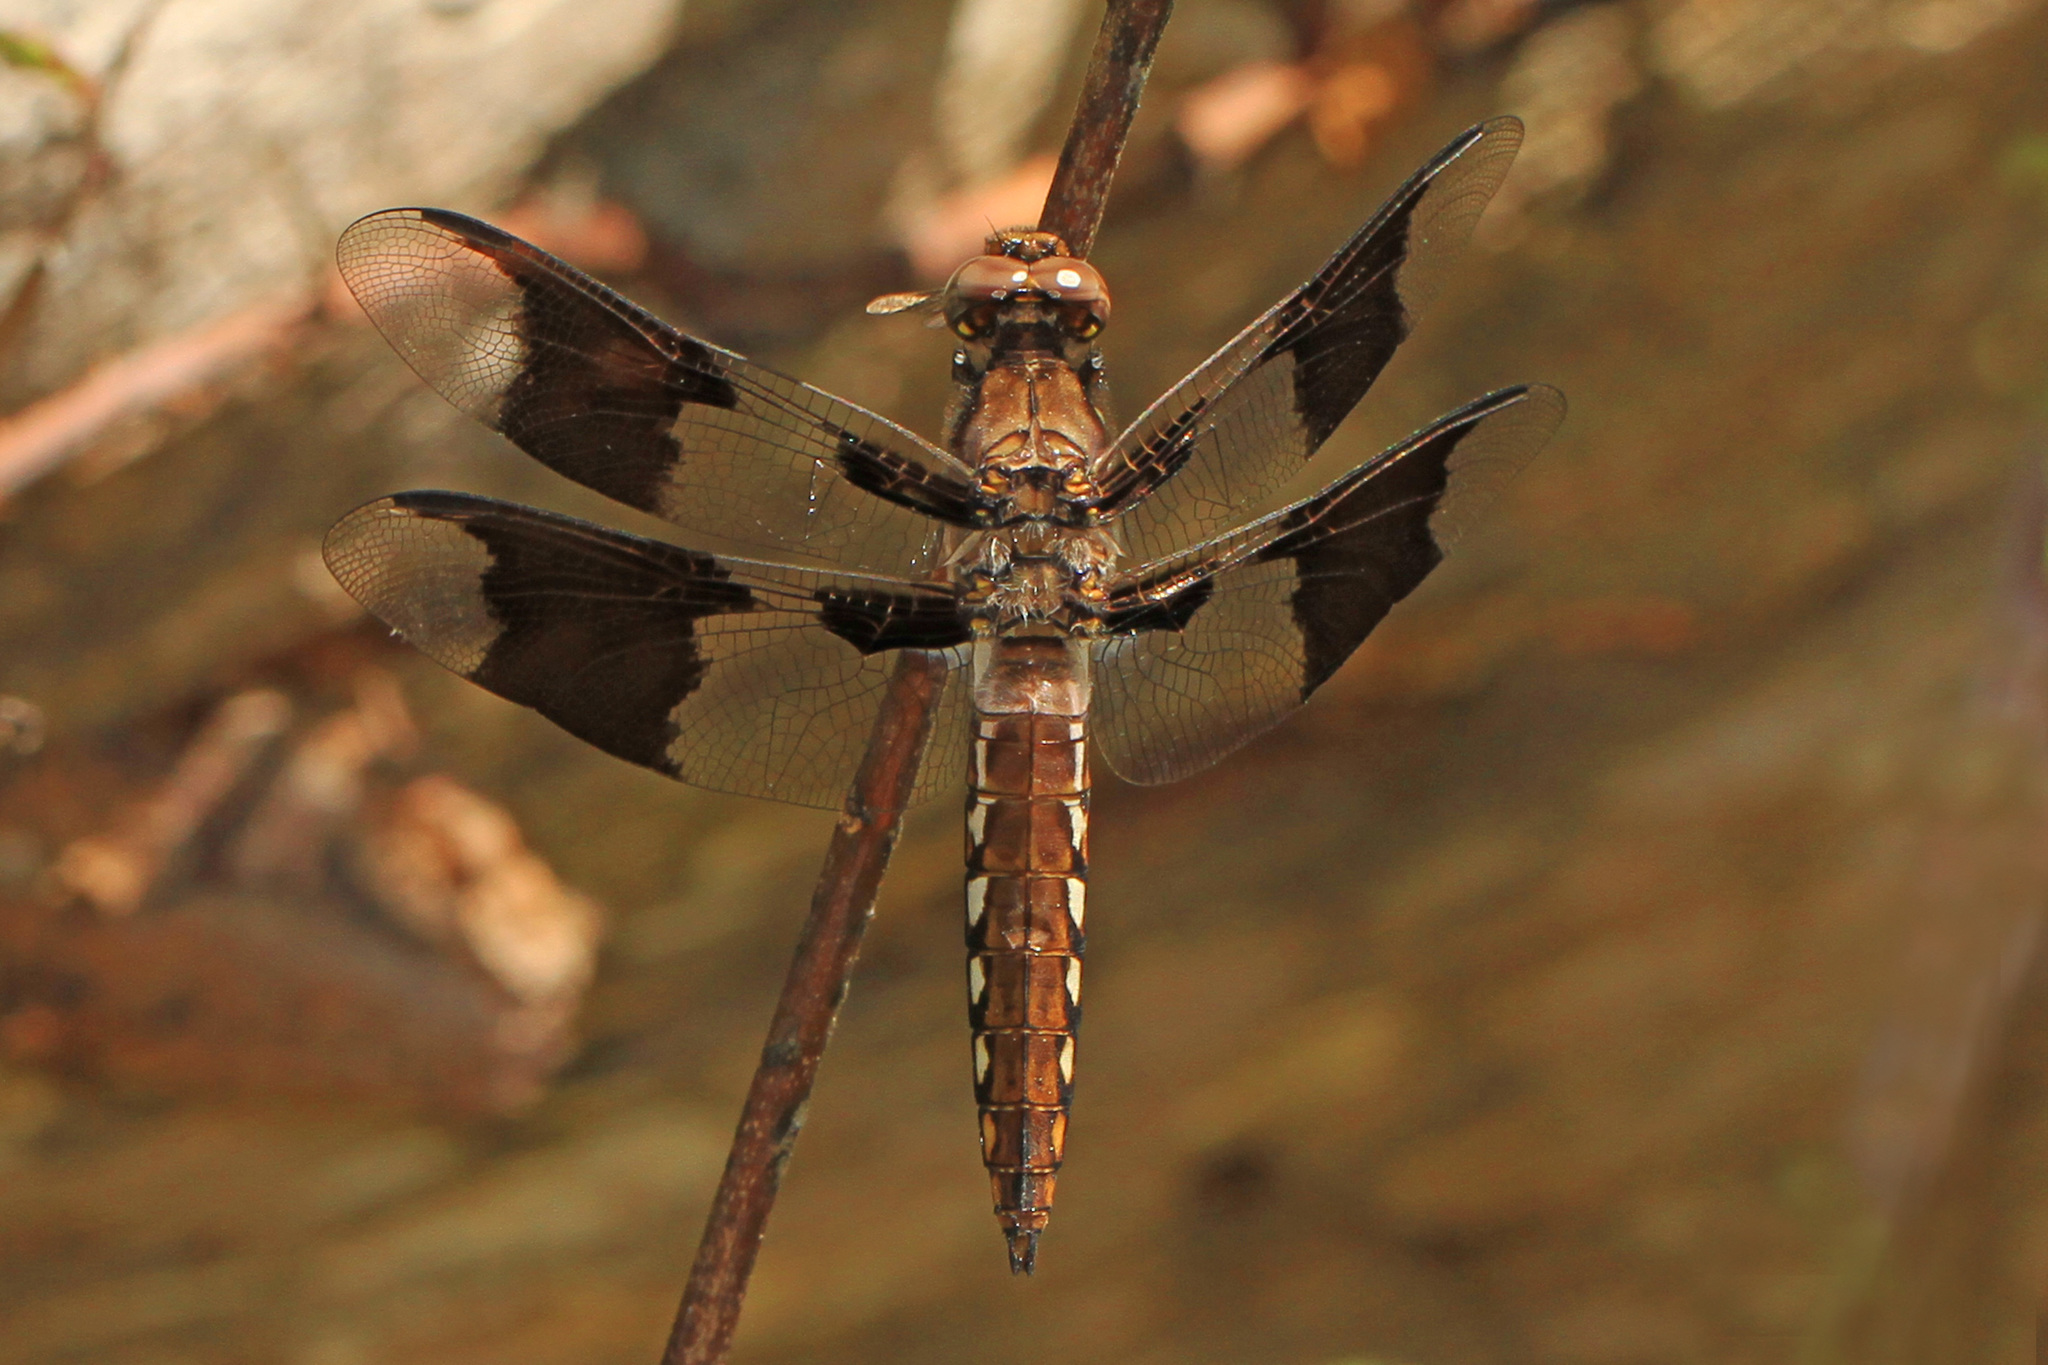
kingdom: Animalia
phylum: Arthropoda
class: Insecta
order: Odonata
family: Libellulidae
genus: Plathemis
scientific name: Plathemis lydia
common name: Common whitetail
